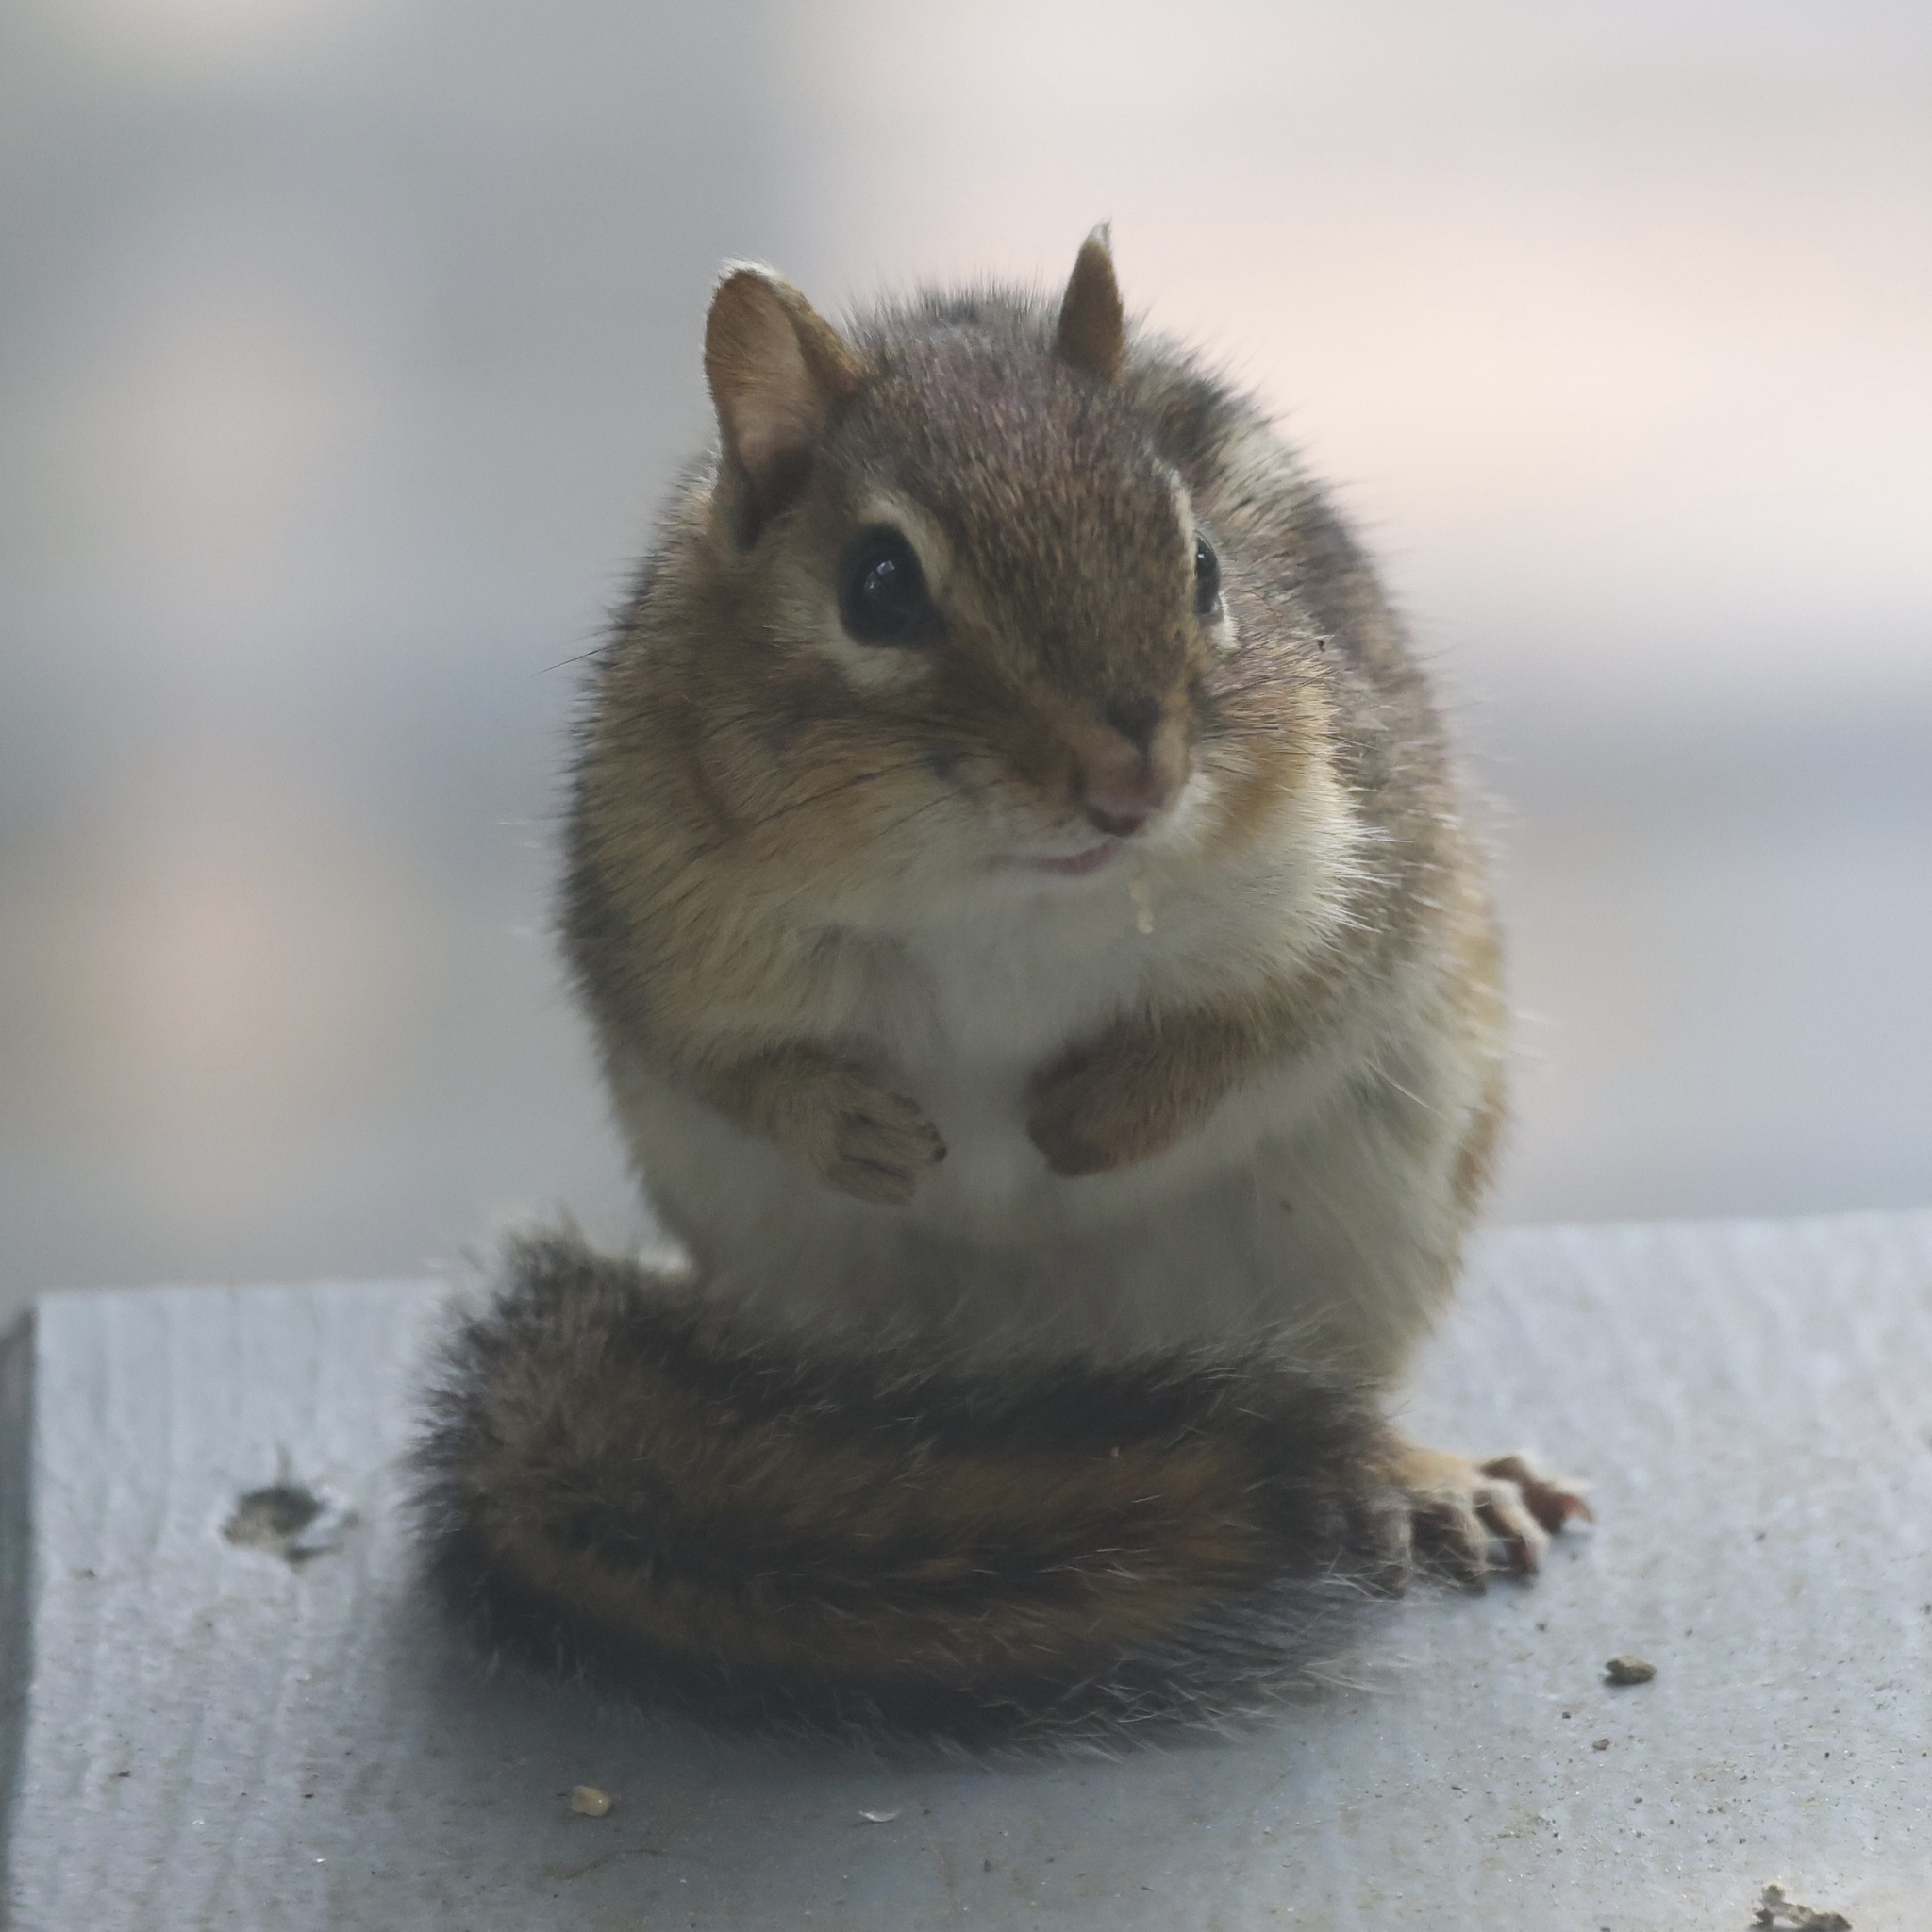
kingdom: Animalia
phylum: Chordata
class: Mammalia
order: Rodentia
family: Sciuridae
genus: Tamias
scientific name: Tamias striatus
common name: Eastern chipmunk
